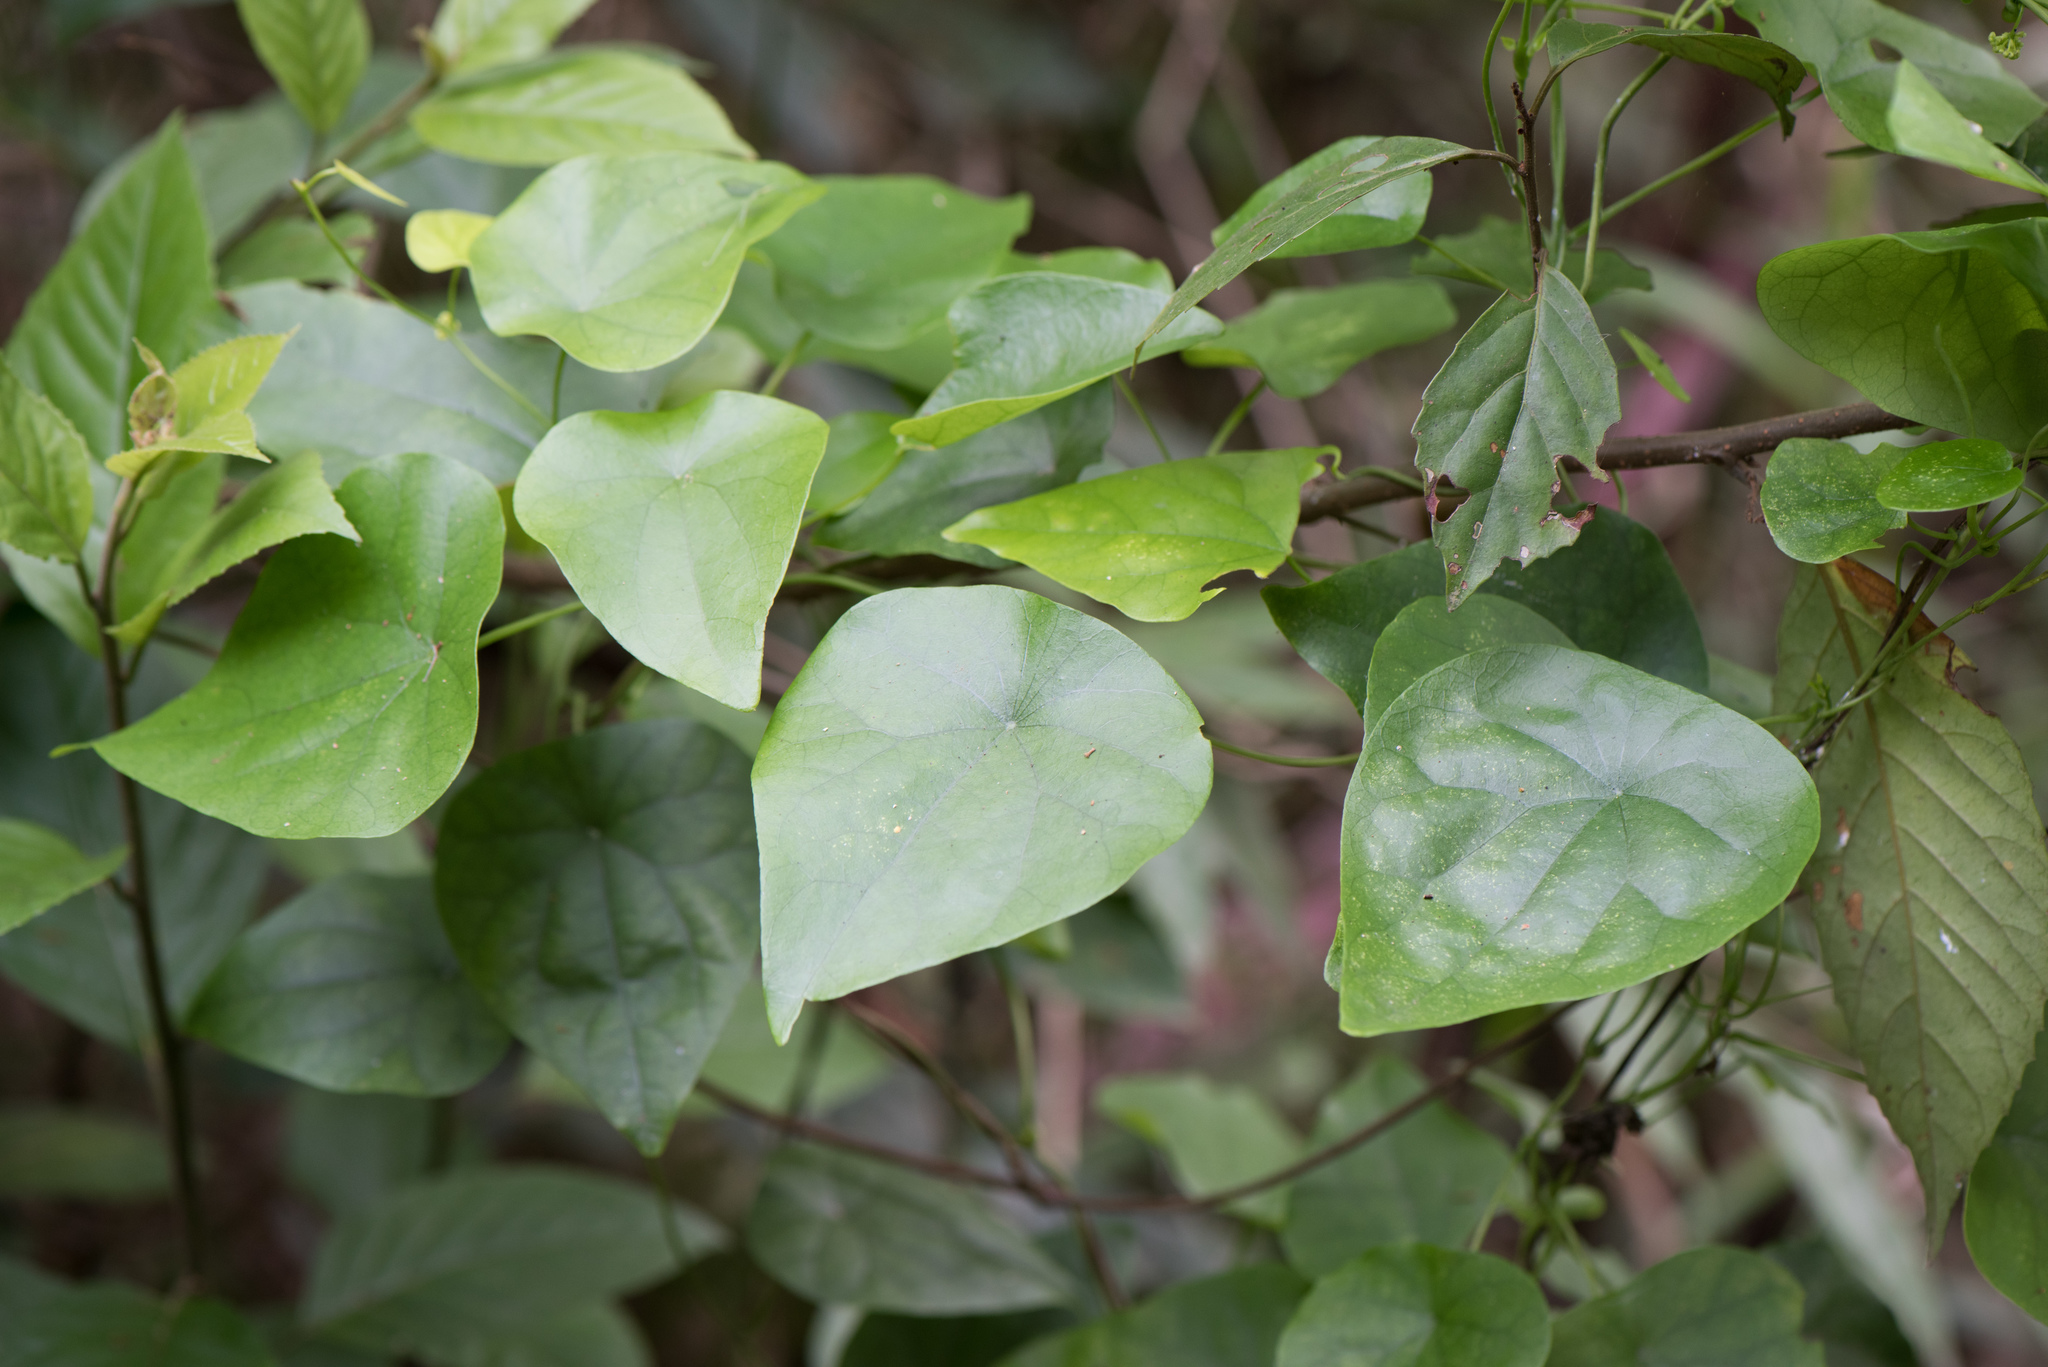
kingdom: Plantae
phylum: Tracheophyta
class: Magnoliopsida
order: Ranunculales
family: Menispermaceae
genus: Stephania
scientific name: Stephania japonica
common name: Snake vine
